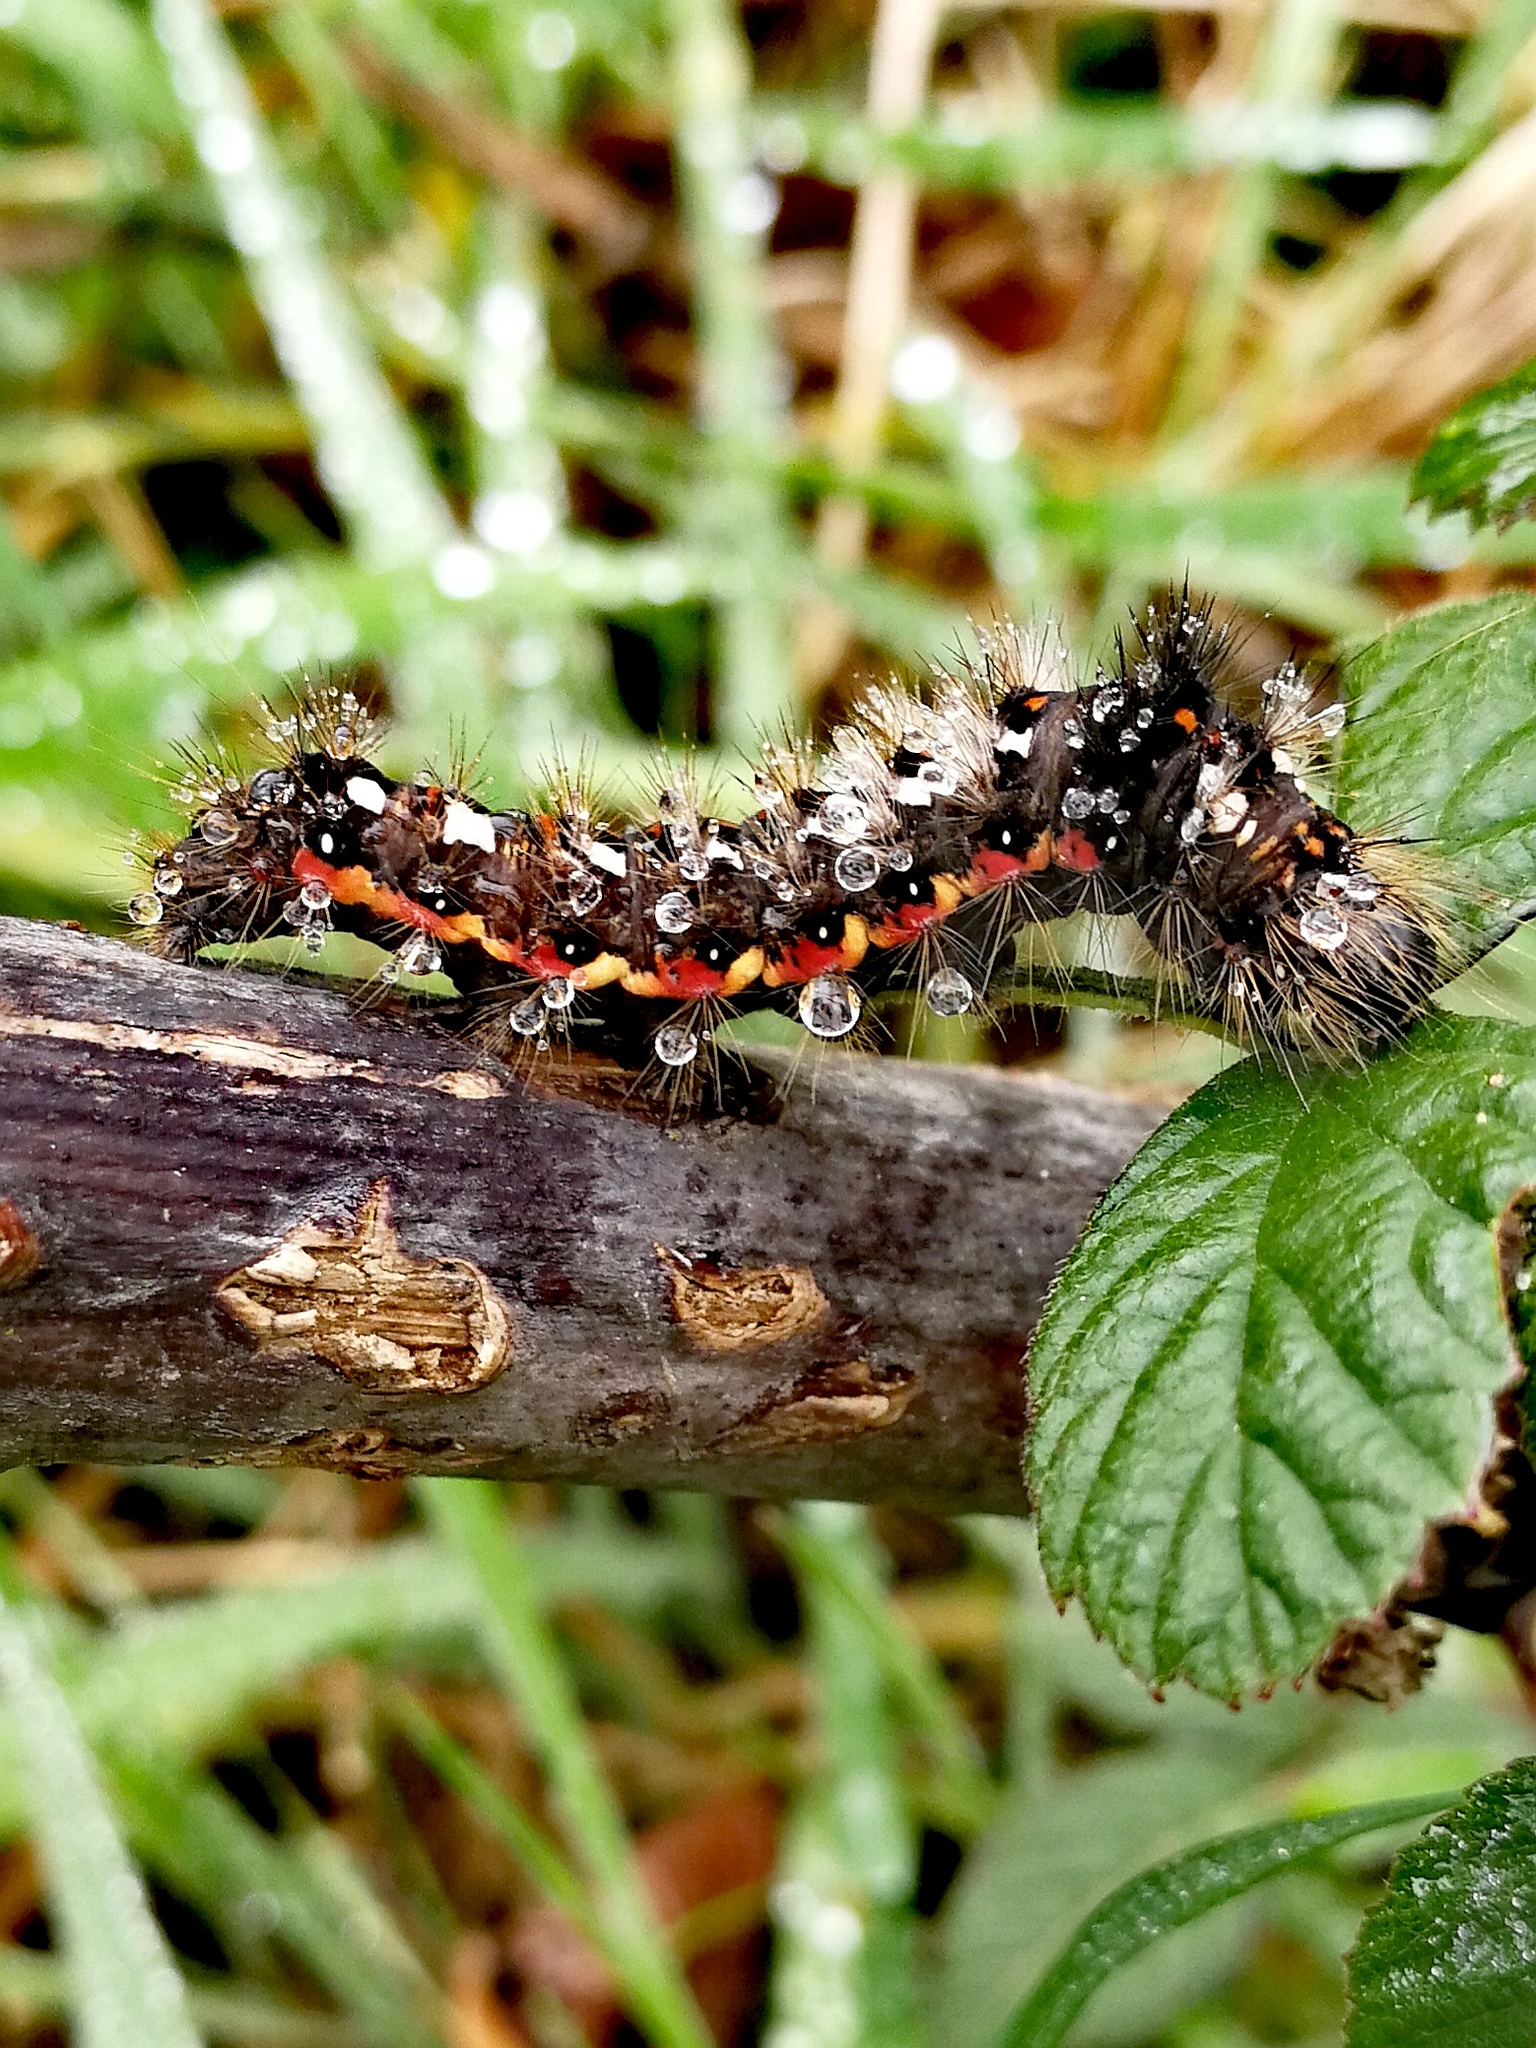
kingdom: Animalia
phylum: Arthropoda
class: Insecta
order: Lepidoptera
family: Noctuidae
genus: Acronicta
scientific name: Acronicta rumicis
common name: Knot grass
